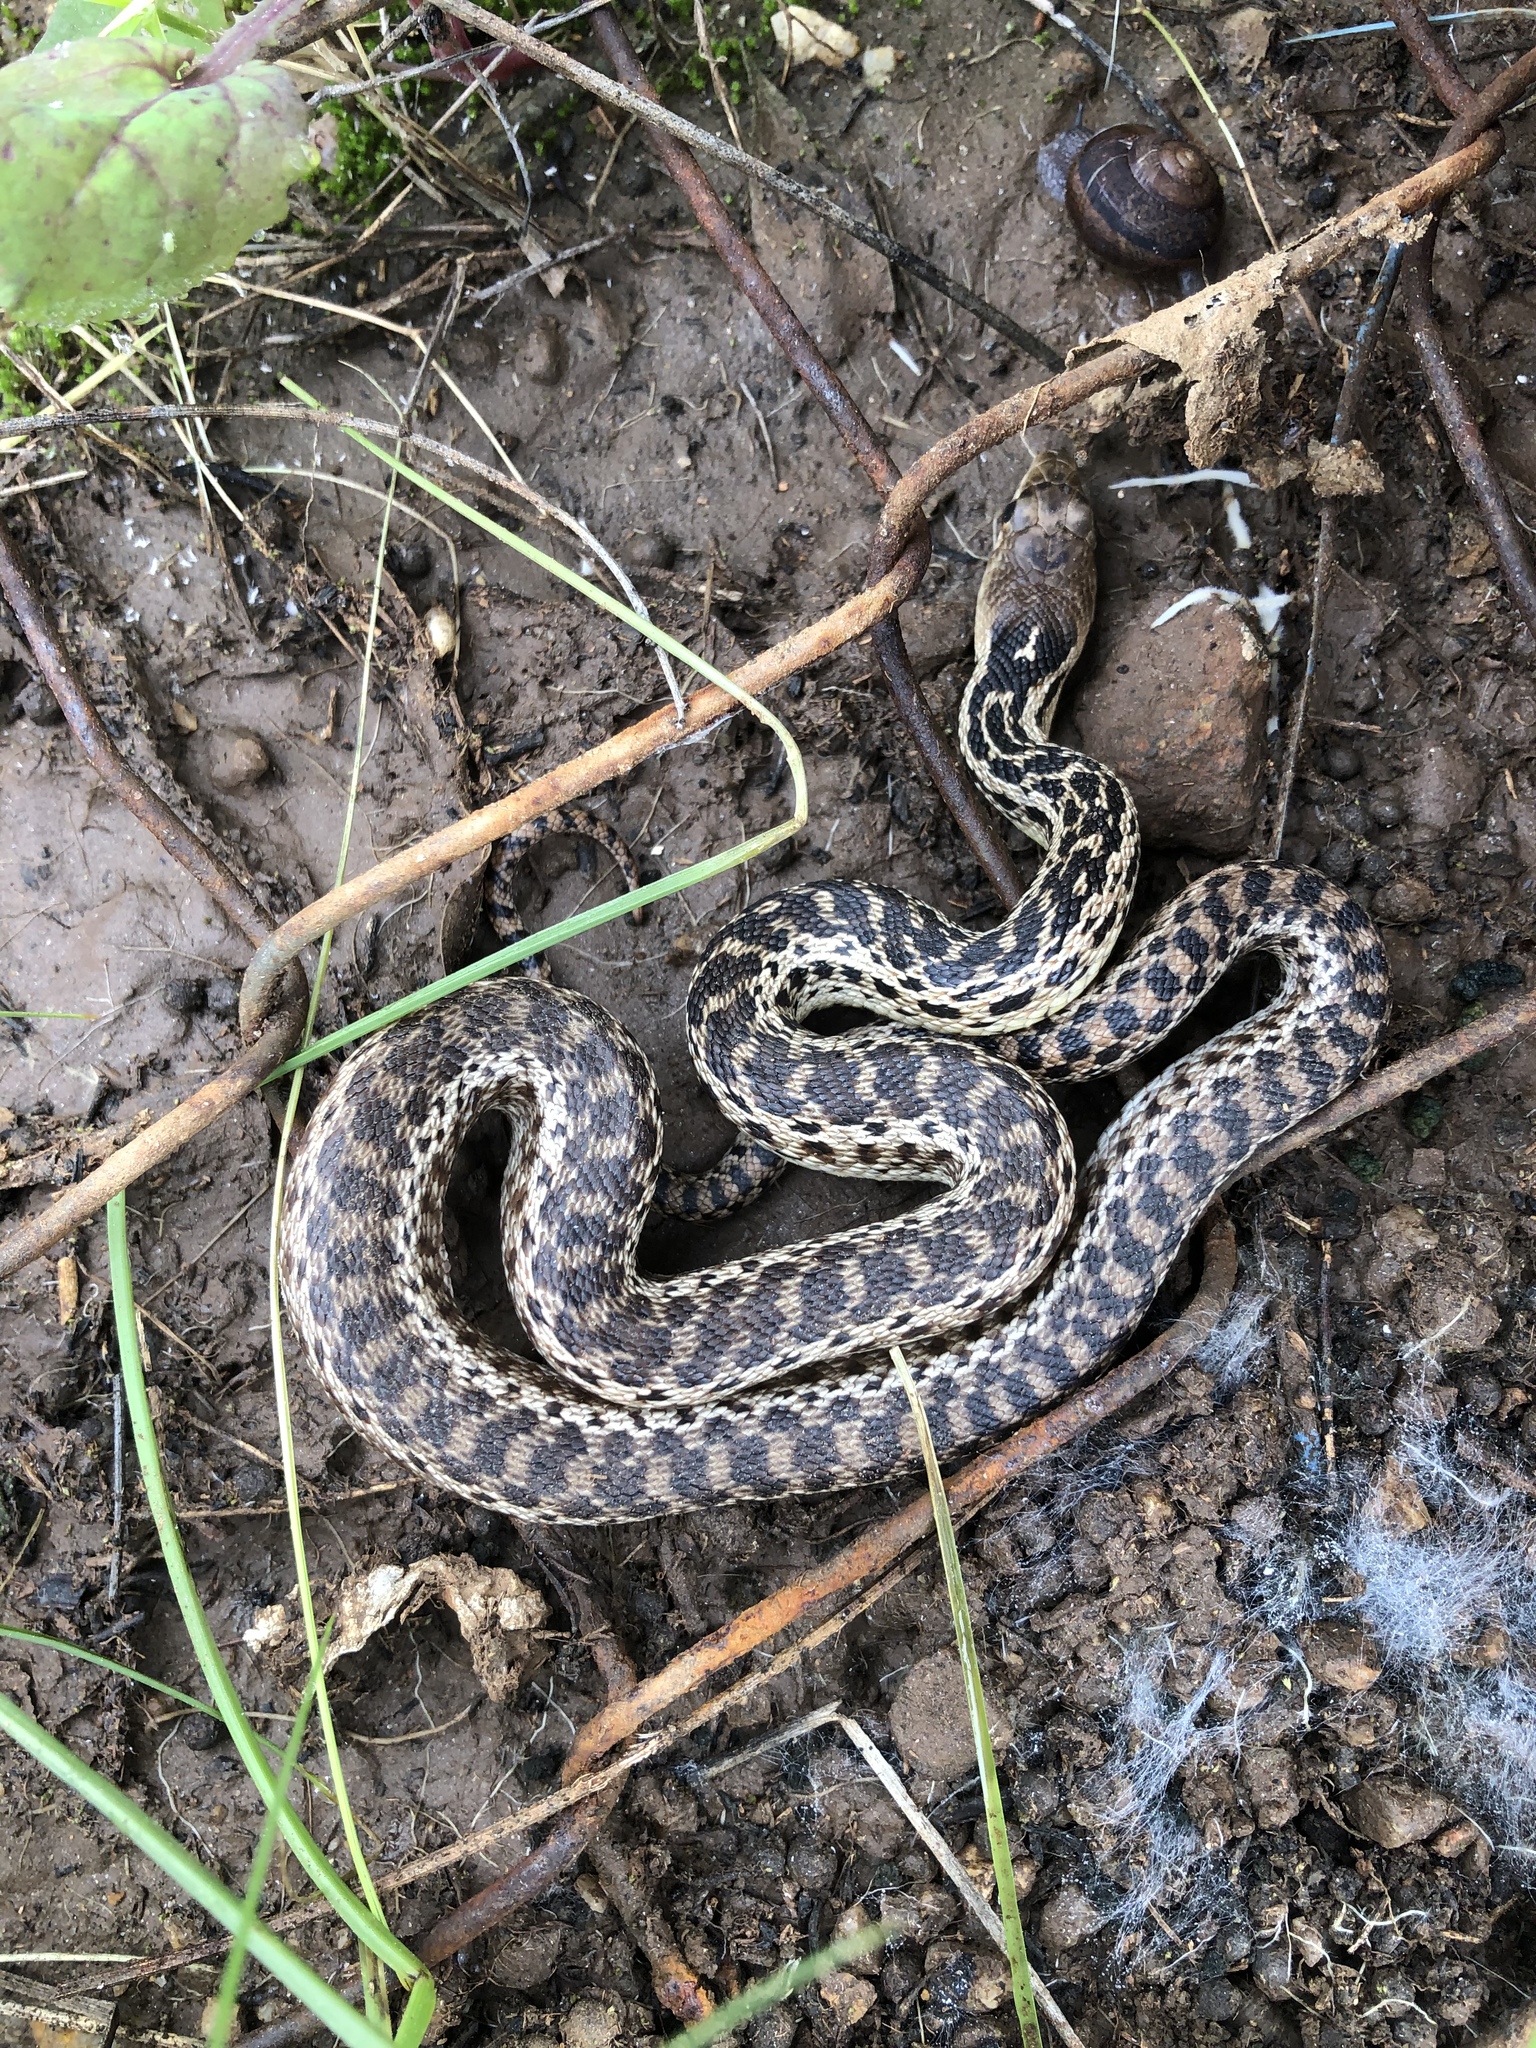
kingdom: Animalia
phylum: Chordata
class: Squamata
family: Colubridae
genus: Pituophis
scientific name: Pituophis catenifer
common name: Gopher snake
